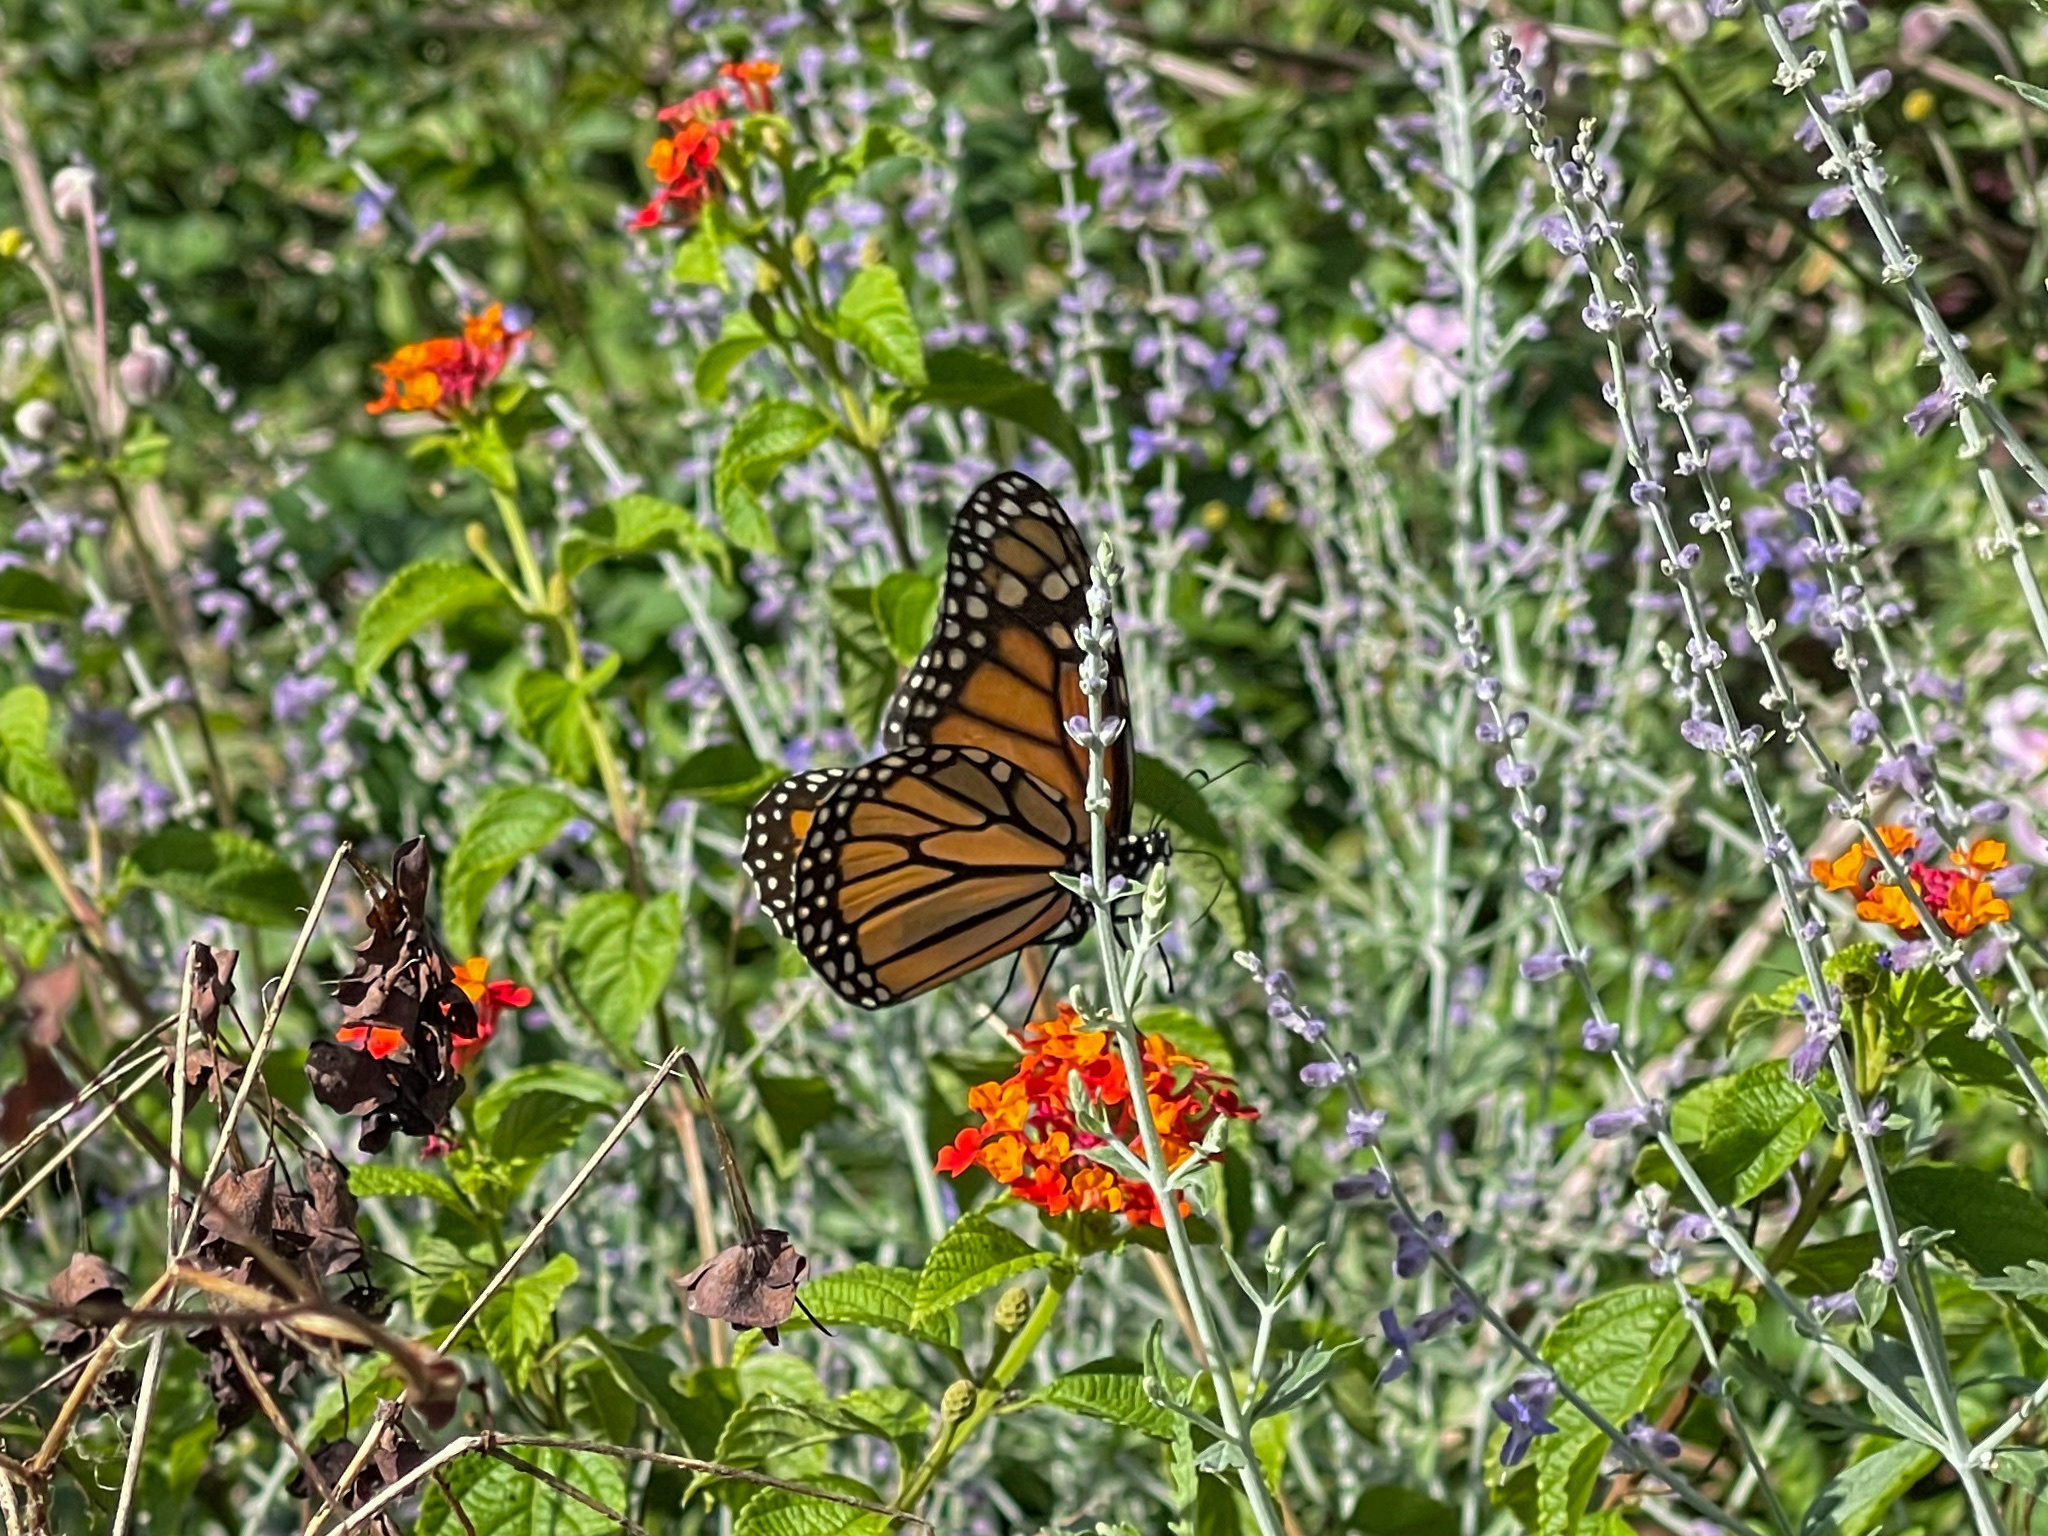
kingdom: Animalia
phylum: Arthropoda
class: Insecta
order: Lepidoptera
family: Nymphalidae
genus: Danaus
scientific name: Danaus plexippus
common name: Monarch
